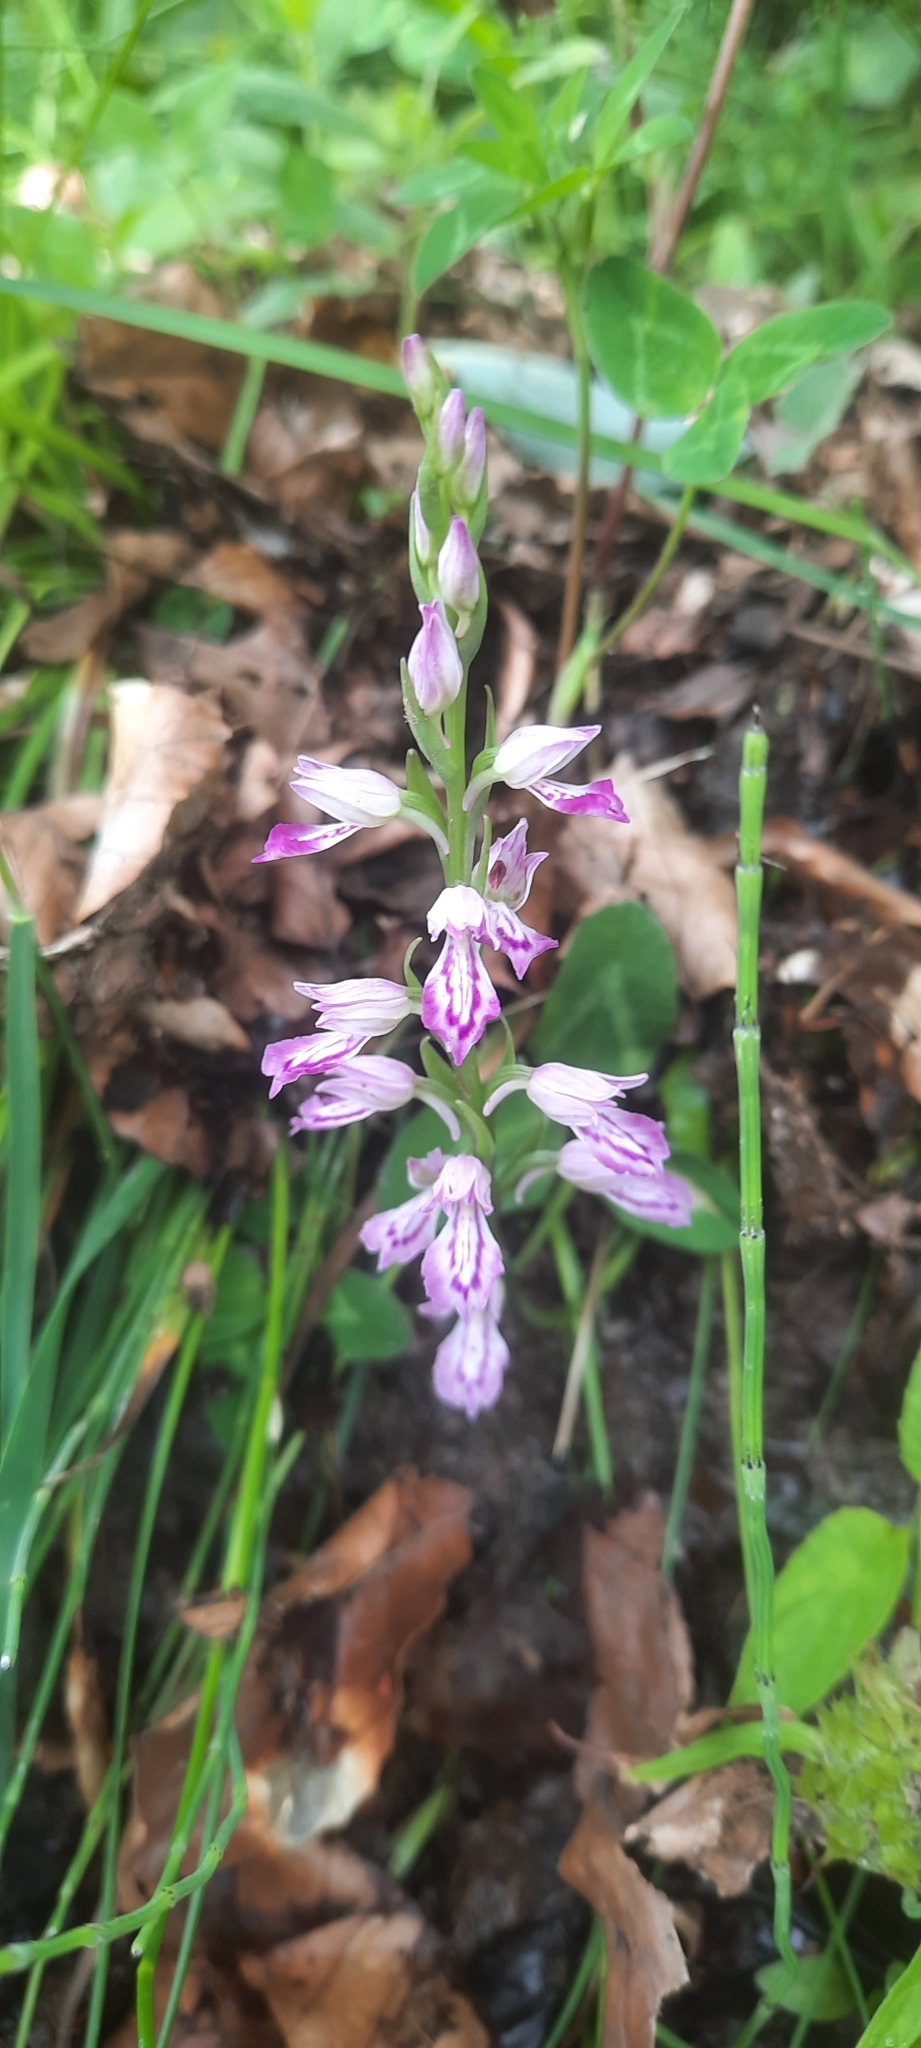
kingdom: Plantae
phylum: Tracheophyta
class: Liliopsida
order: Asparagales
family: Orchidaceae
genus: Dactylorhiza
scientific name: Dactylorhiza iberica
